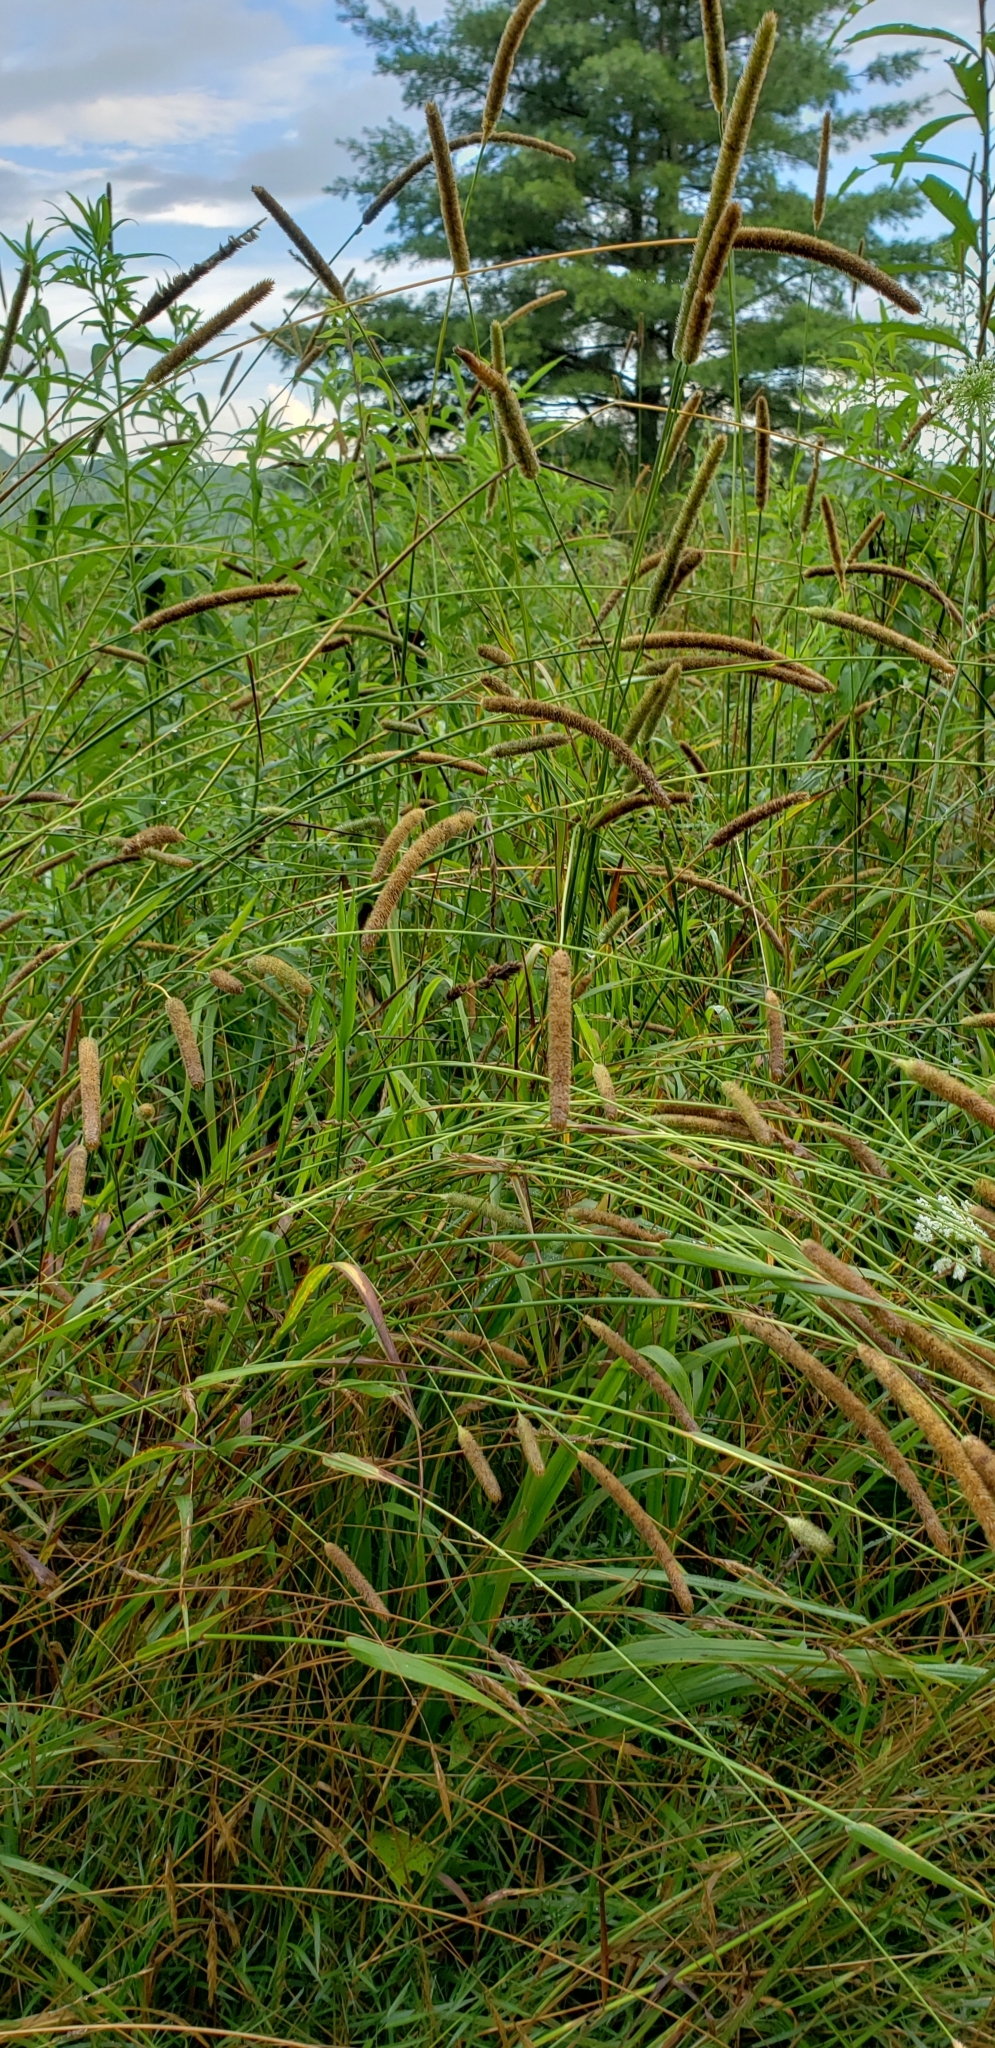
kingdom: Plantae
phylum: Tracheophyta
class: Liliopsida
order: Poales
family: Poaceae
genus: Phleum
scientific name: Phleum pratense
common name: Timothy grass
